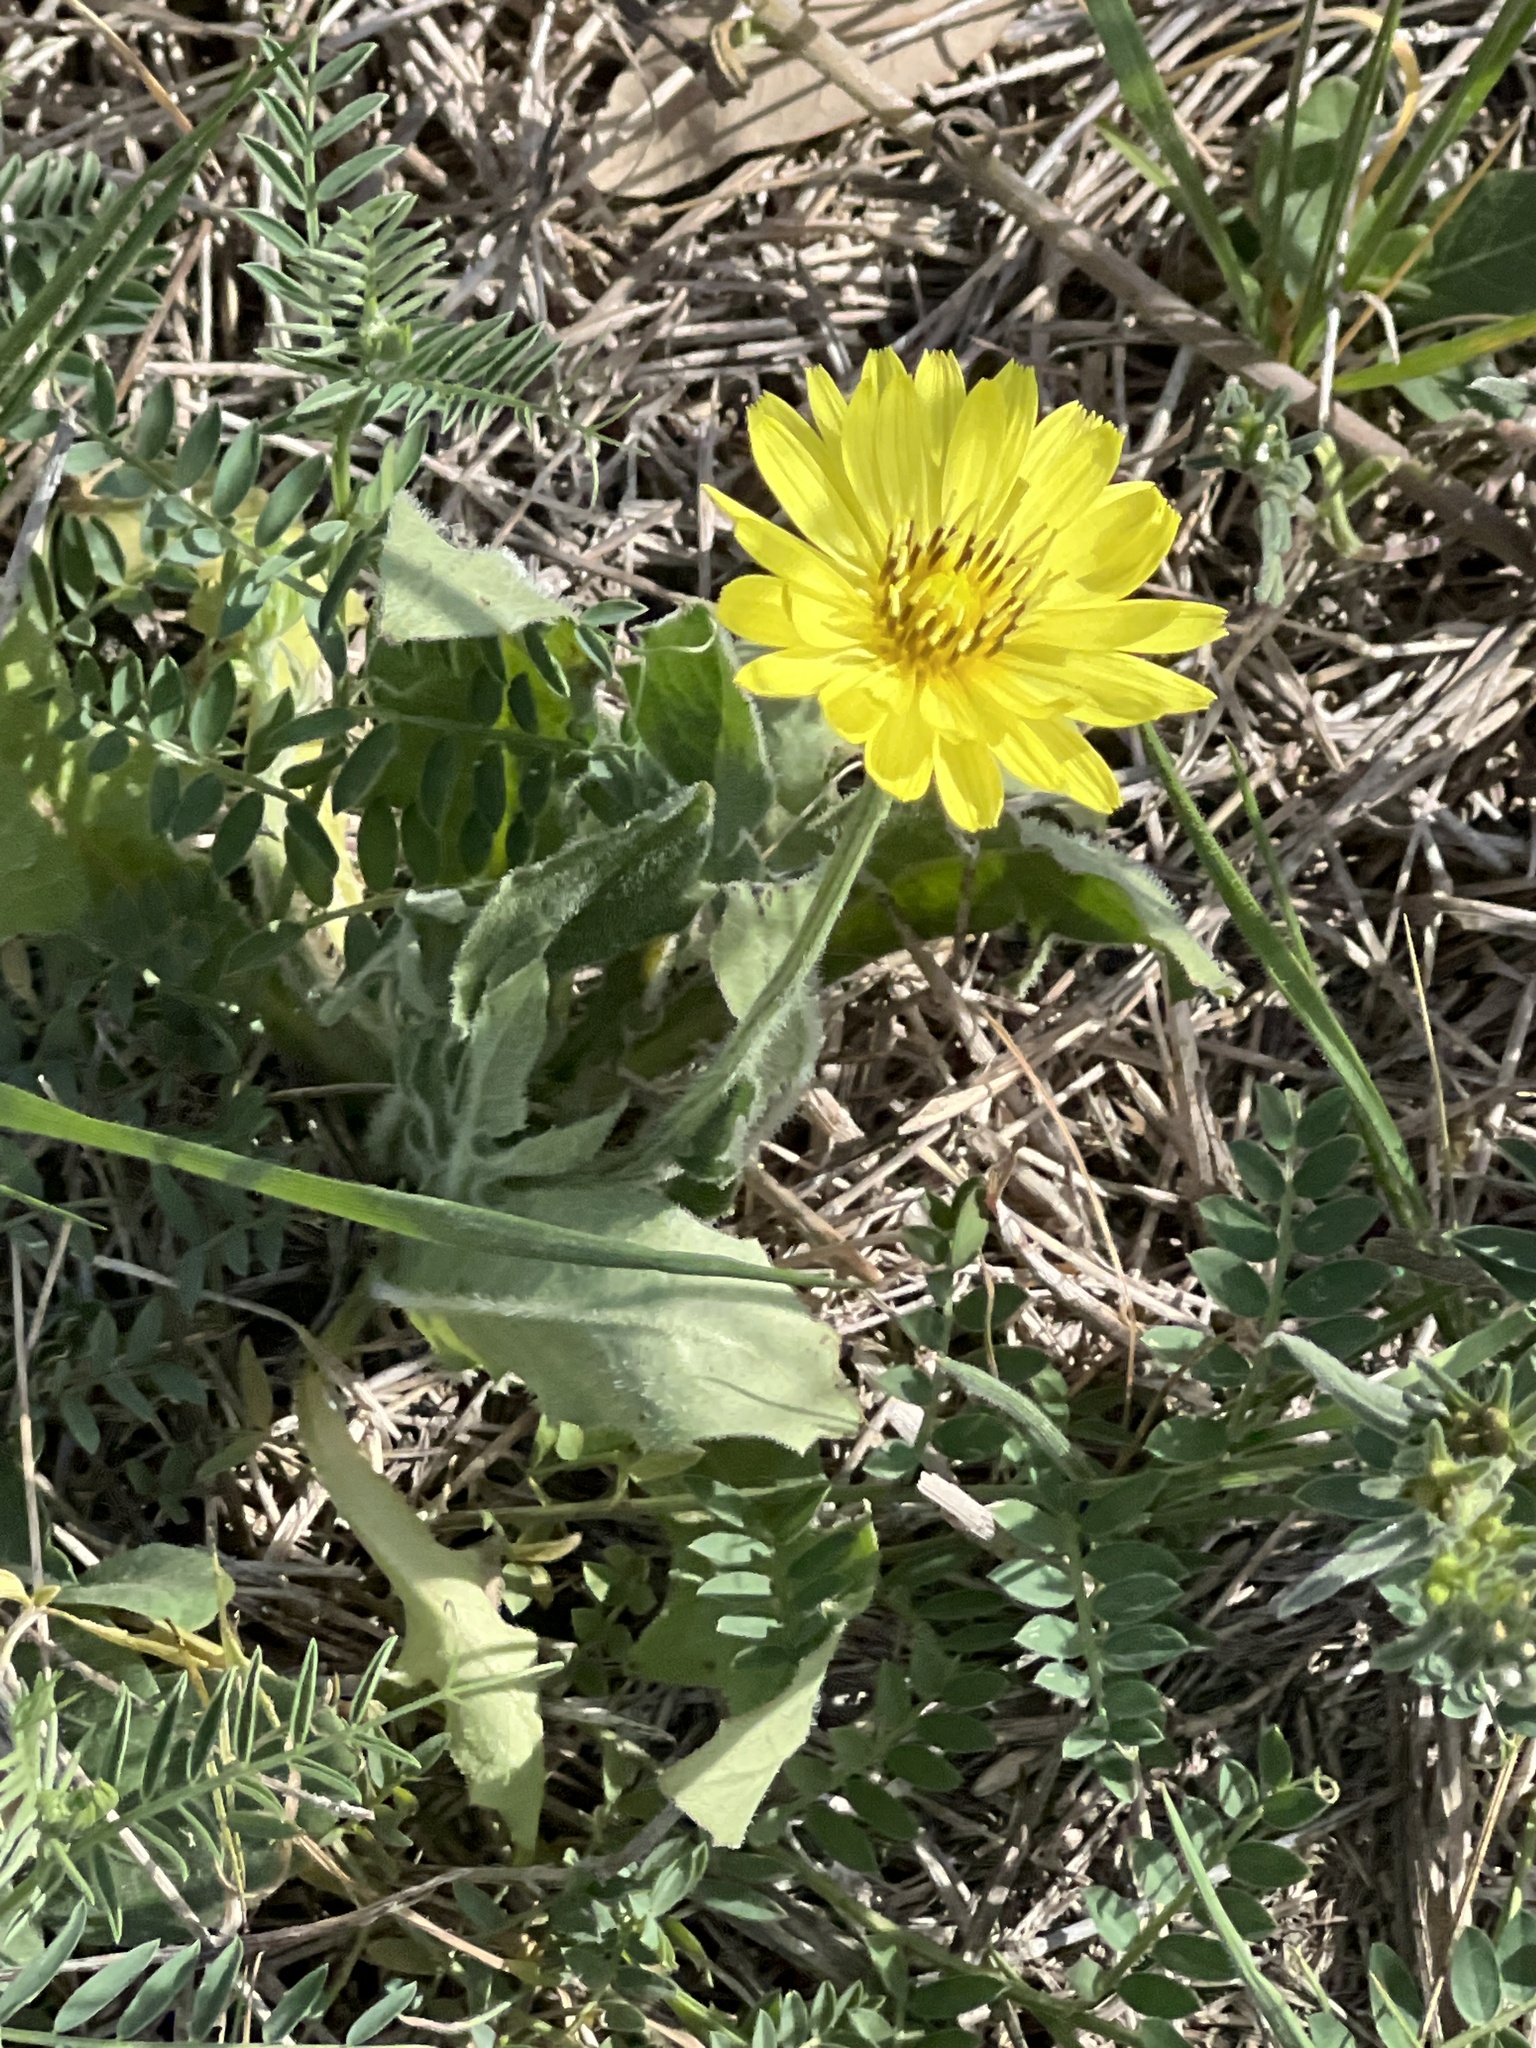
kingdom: Plantae
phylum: Tracheophyta
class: Magnoliopsida
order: Asterales
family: Asteraceae
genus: Pyrrhopappus
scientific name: Pyrrhopappus pauciflorus
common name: Texas false dandelion
